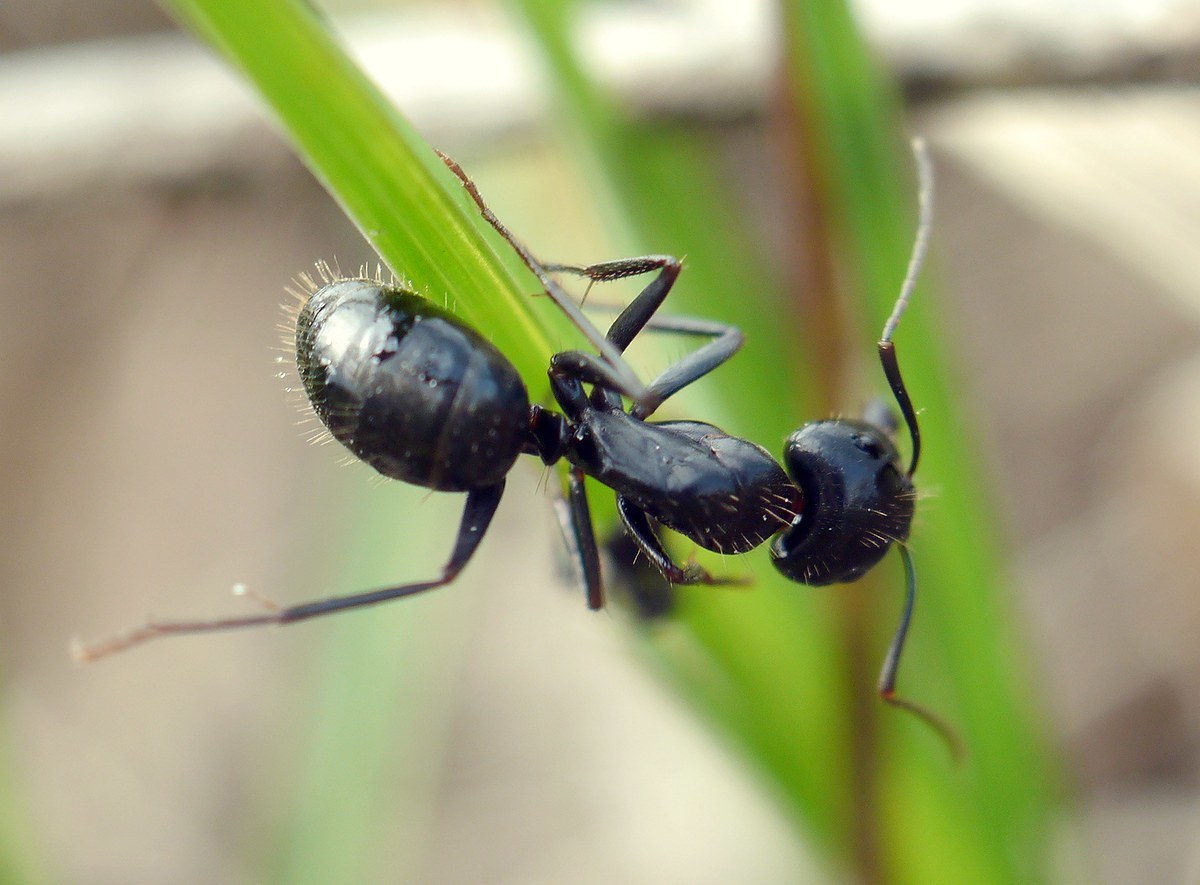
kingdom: Animalia
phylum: Arthropoda
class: Insecta
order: Hymenoptera
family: Formicidae
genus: Camponotus
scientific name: Camponotus aethiops
